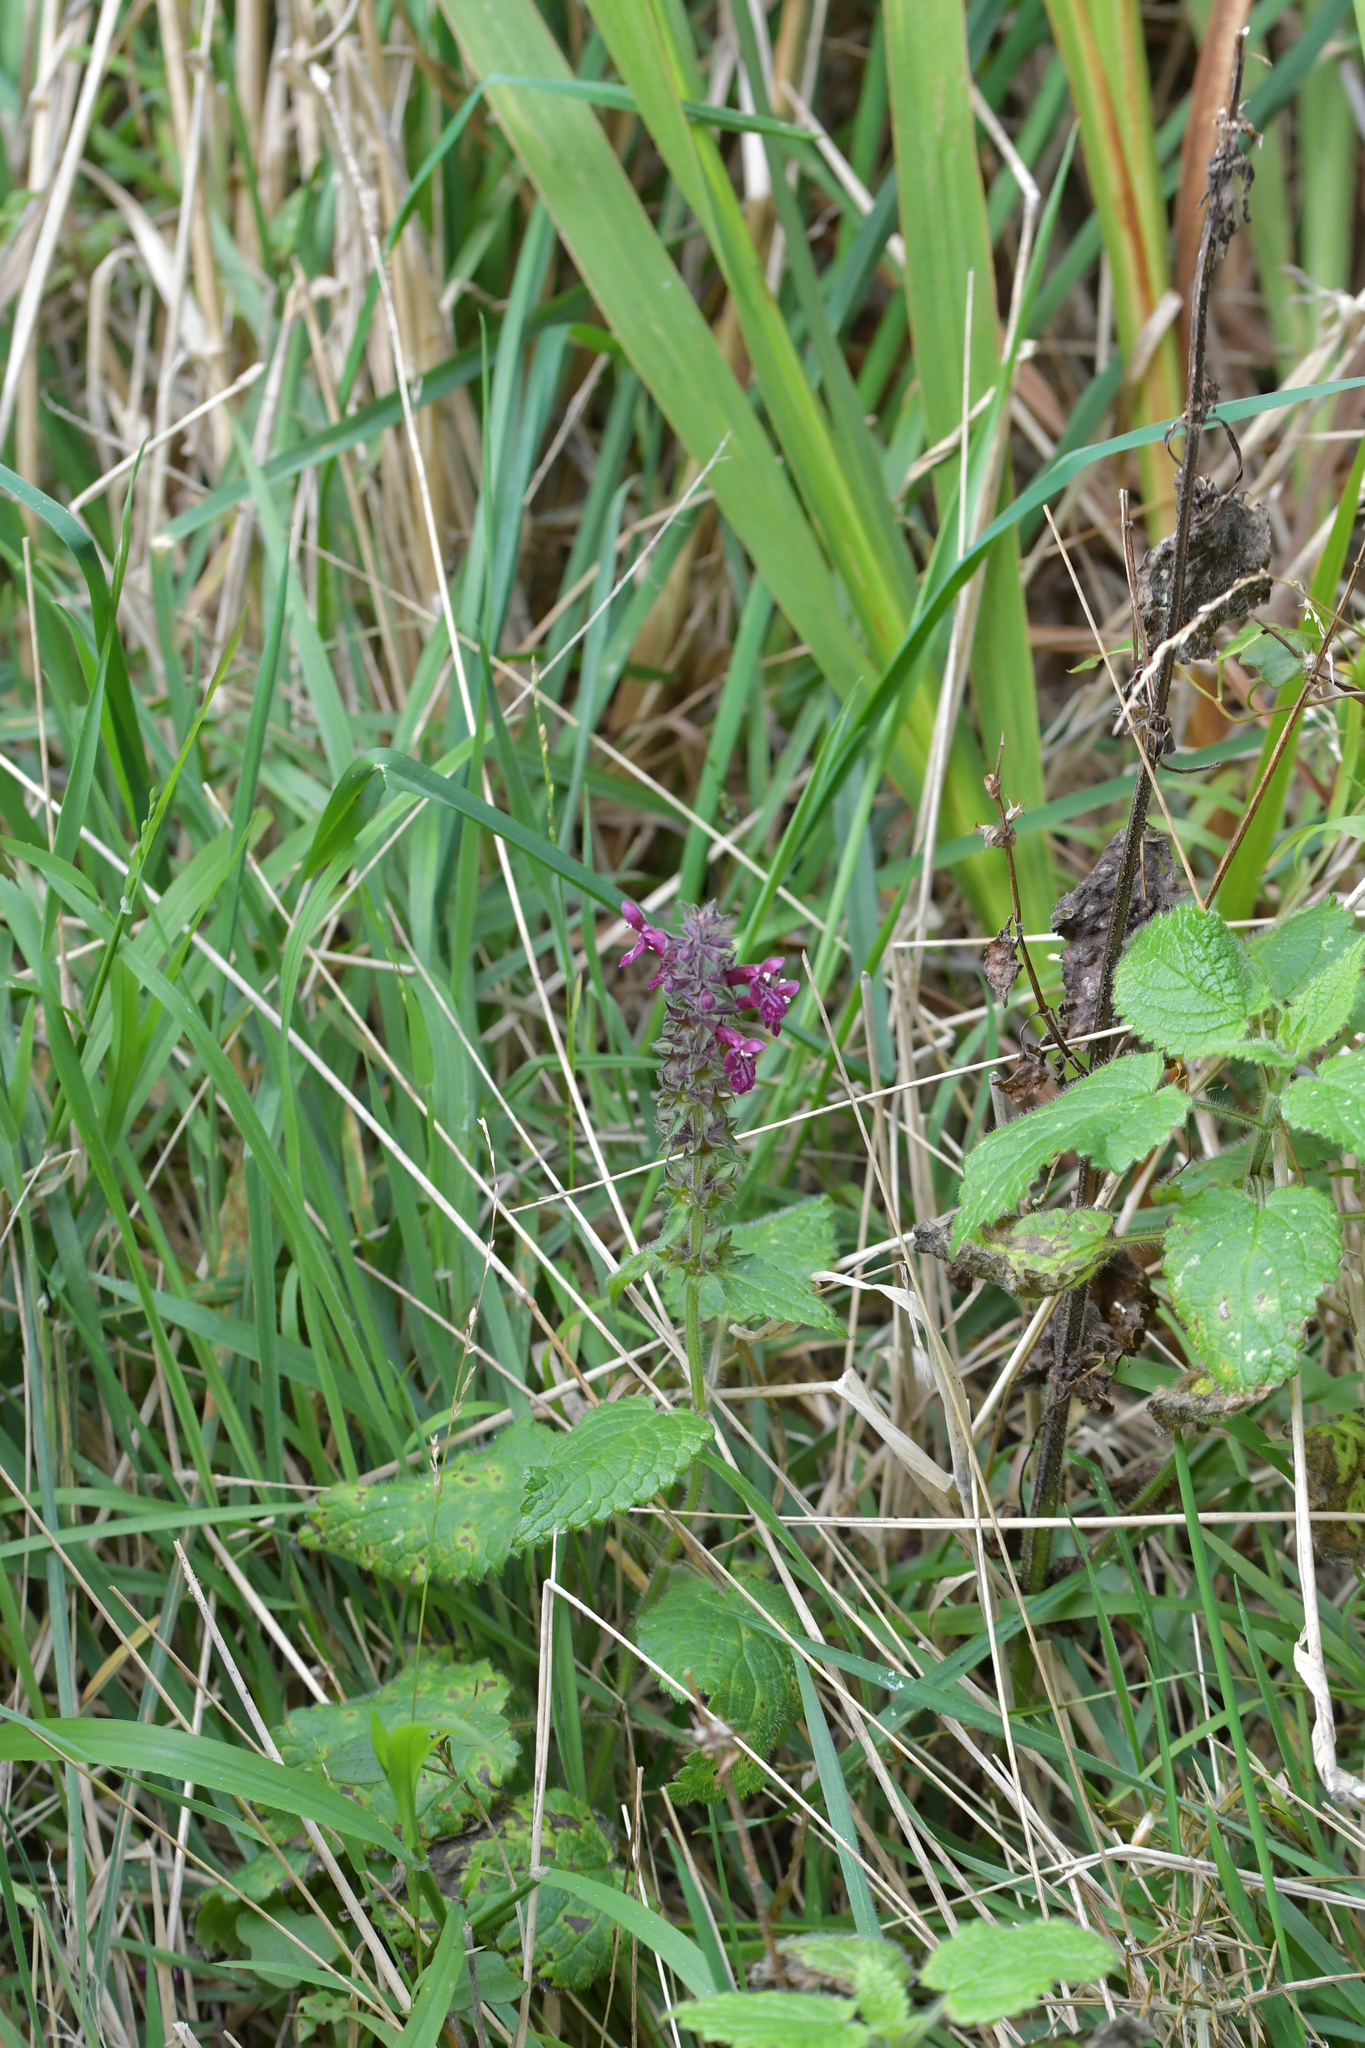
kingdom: Plantae
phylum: Tracheophyta
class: Magnoliopsida
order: Lamiales
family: Lamiaceae
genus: Stachys
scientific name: Stachys sylvatica
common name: Hedge woundwort
